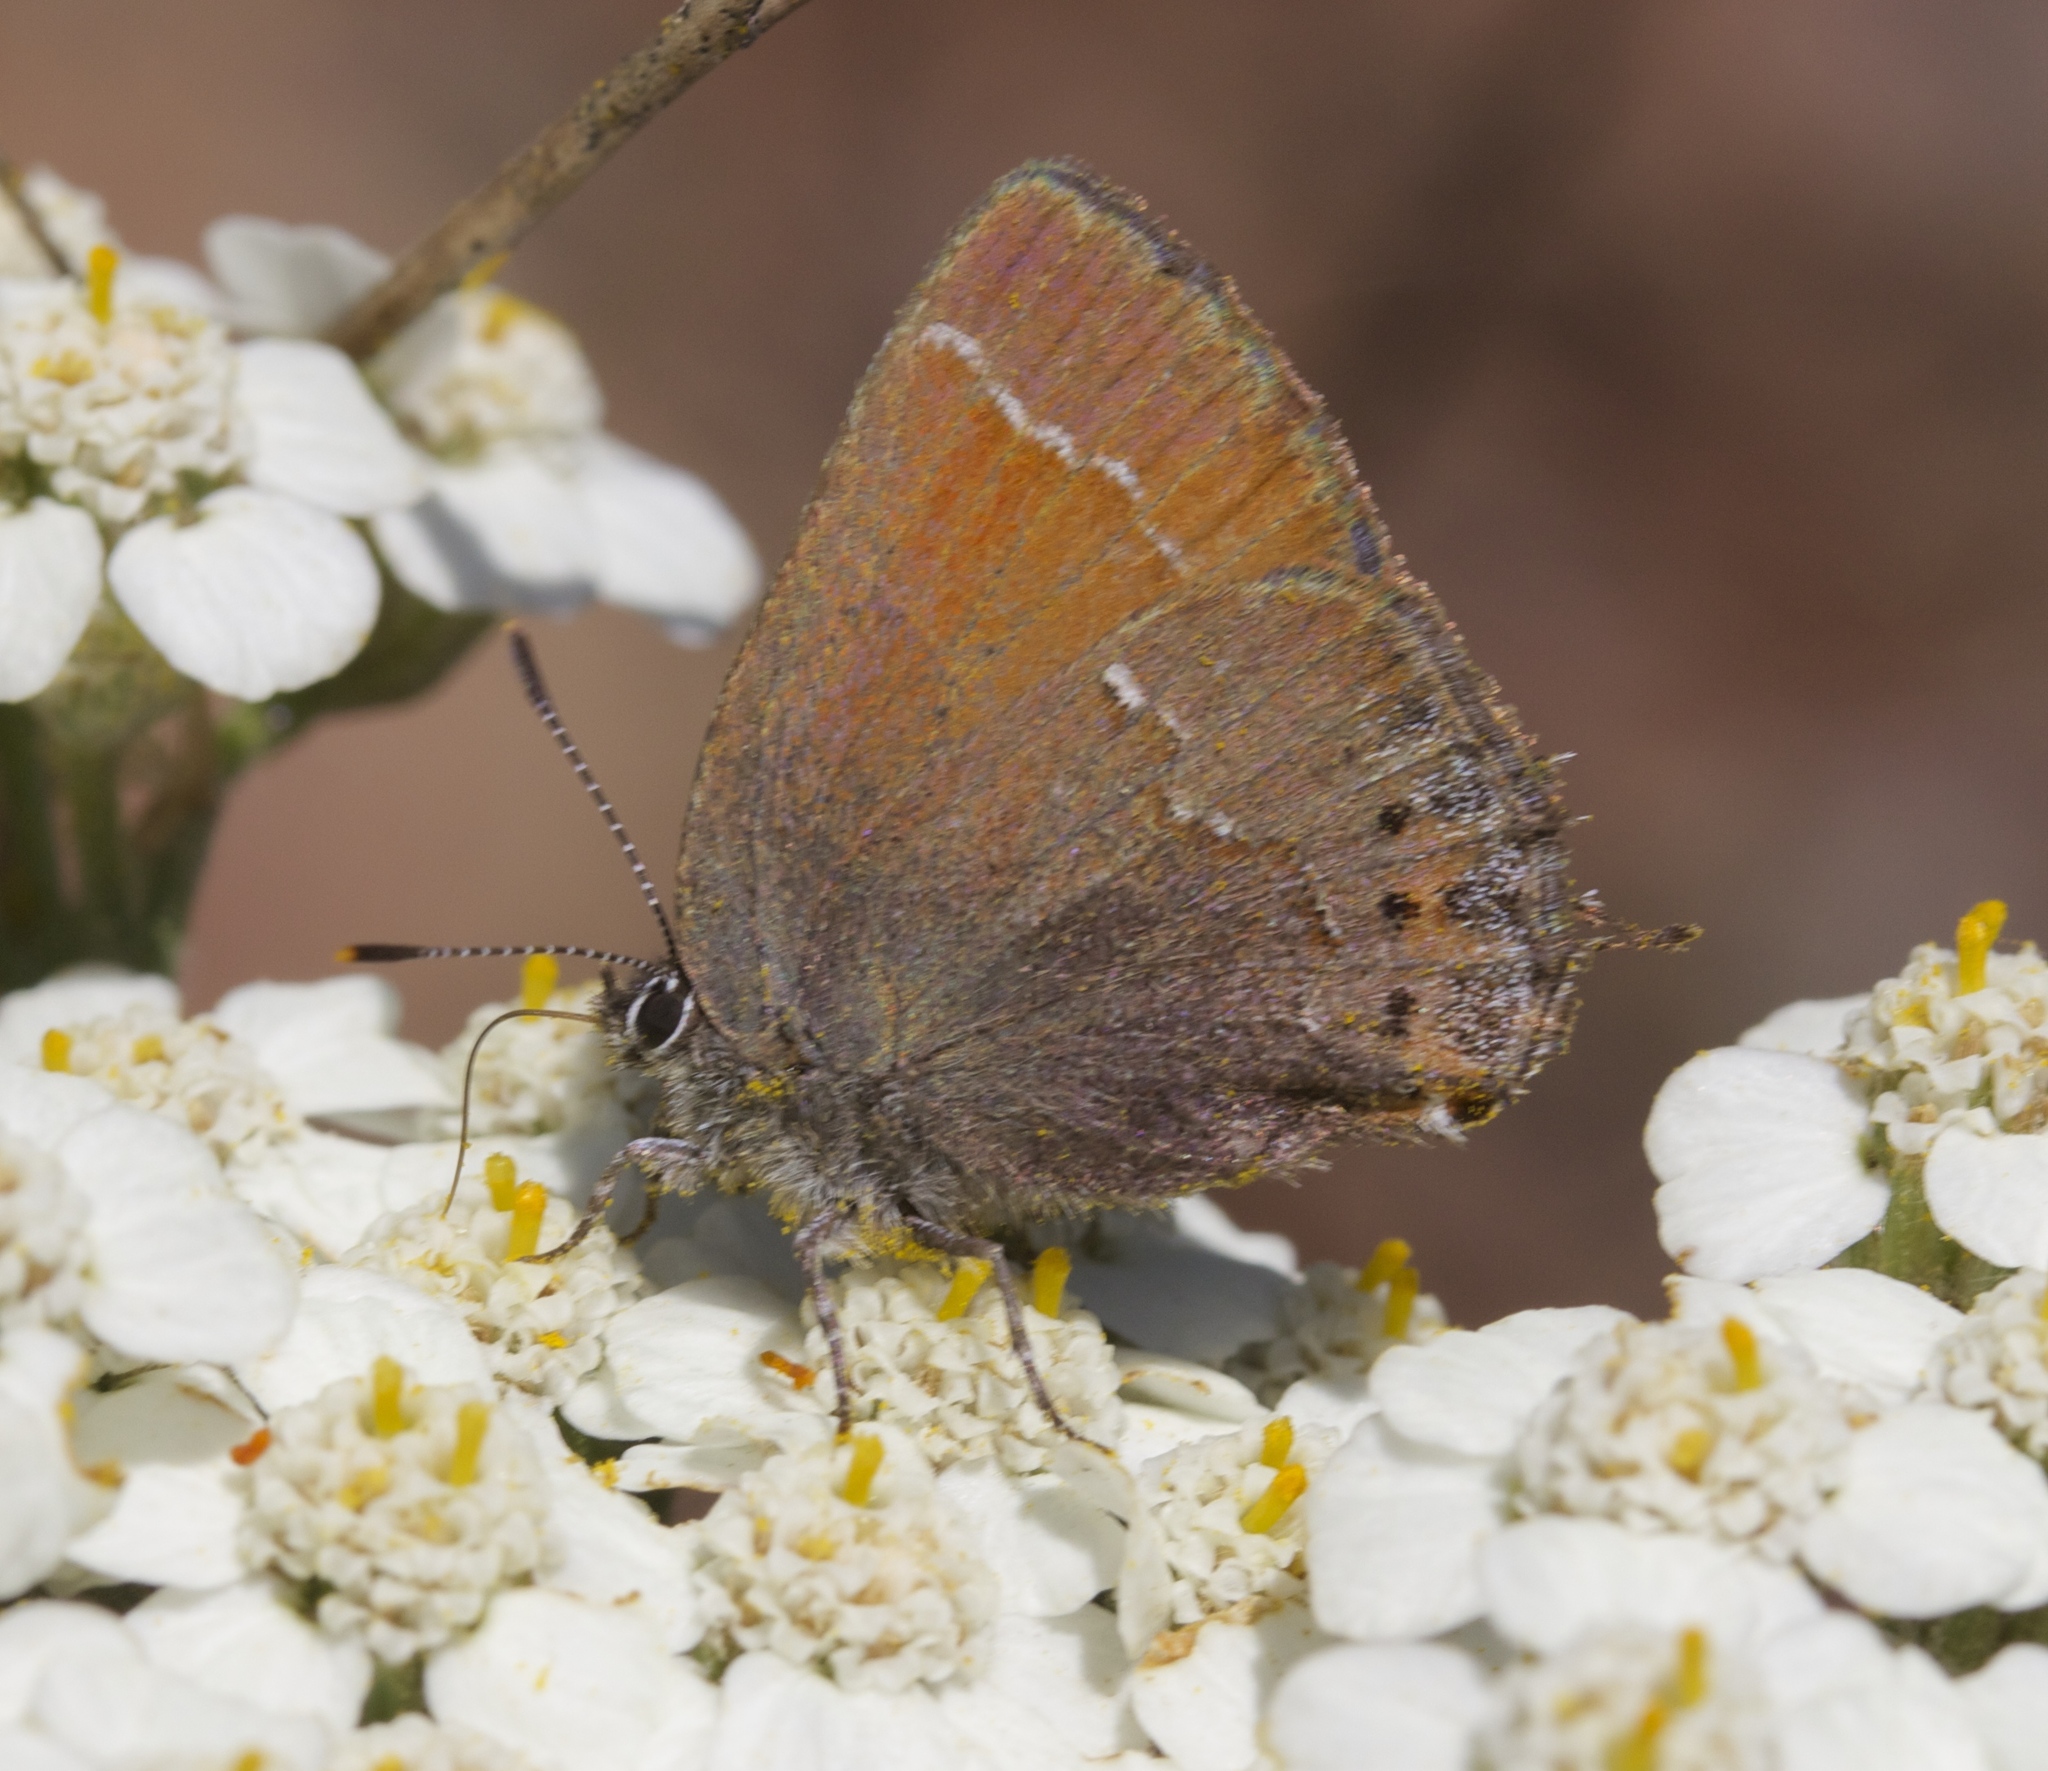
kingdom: Animalia
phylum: Arthropoda
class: Insecta
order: Lepidoptera
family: Lycaenidae
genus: Callophrys
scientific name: Callophrys muiri
